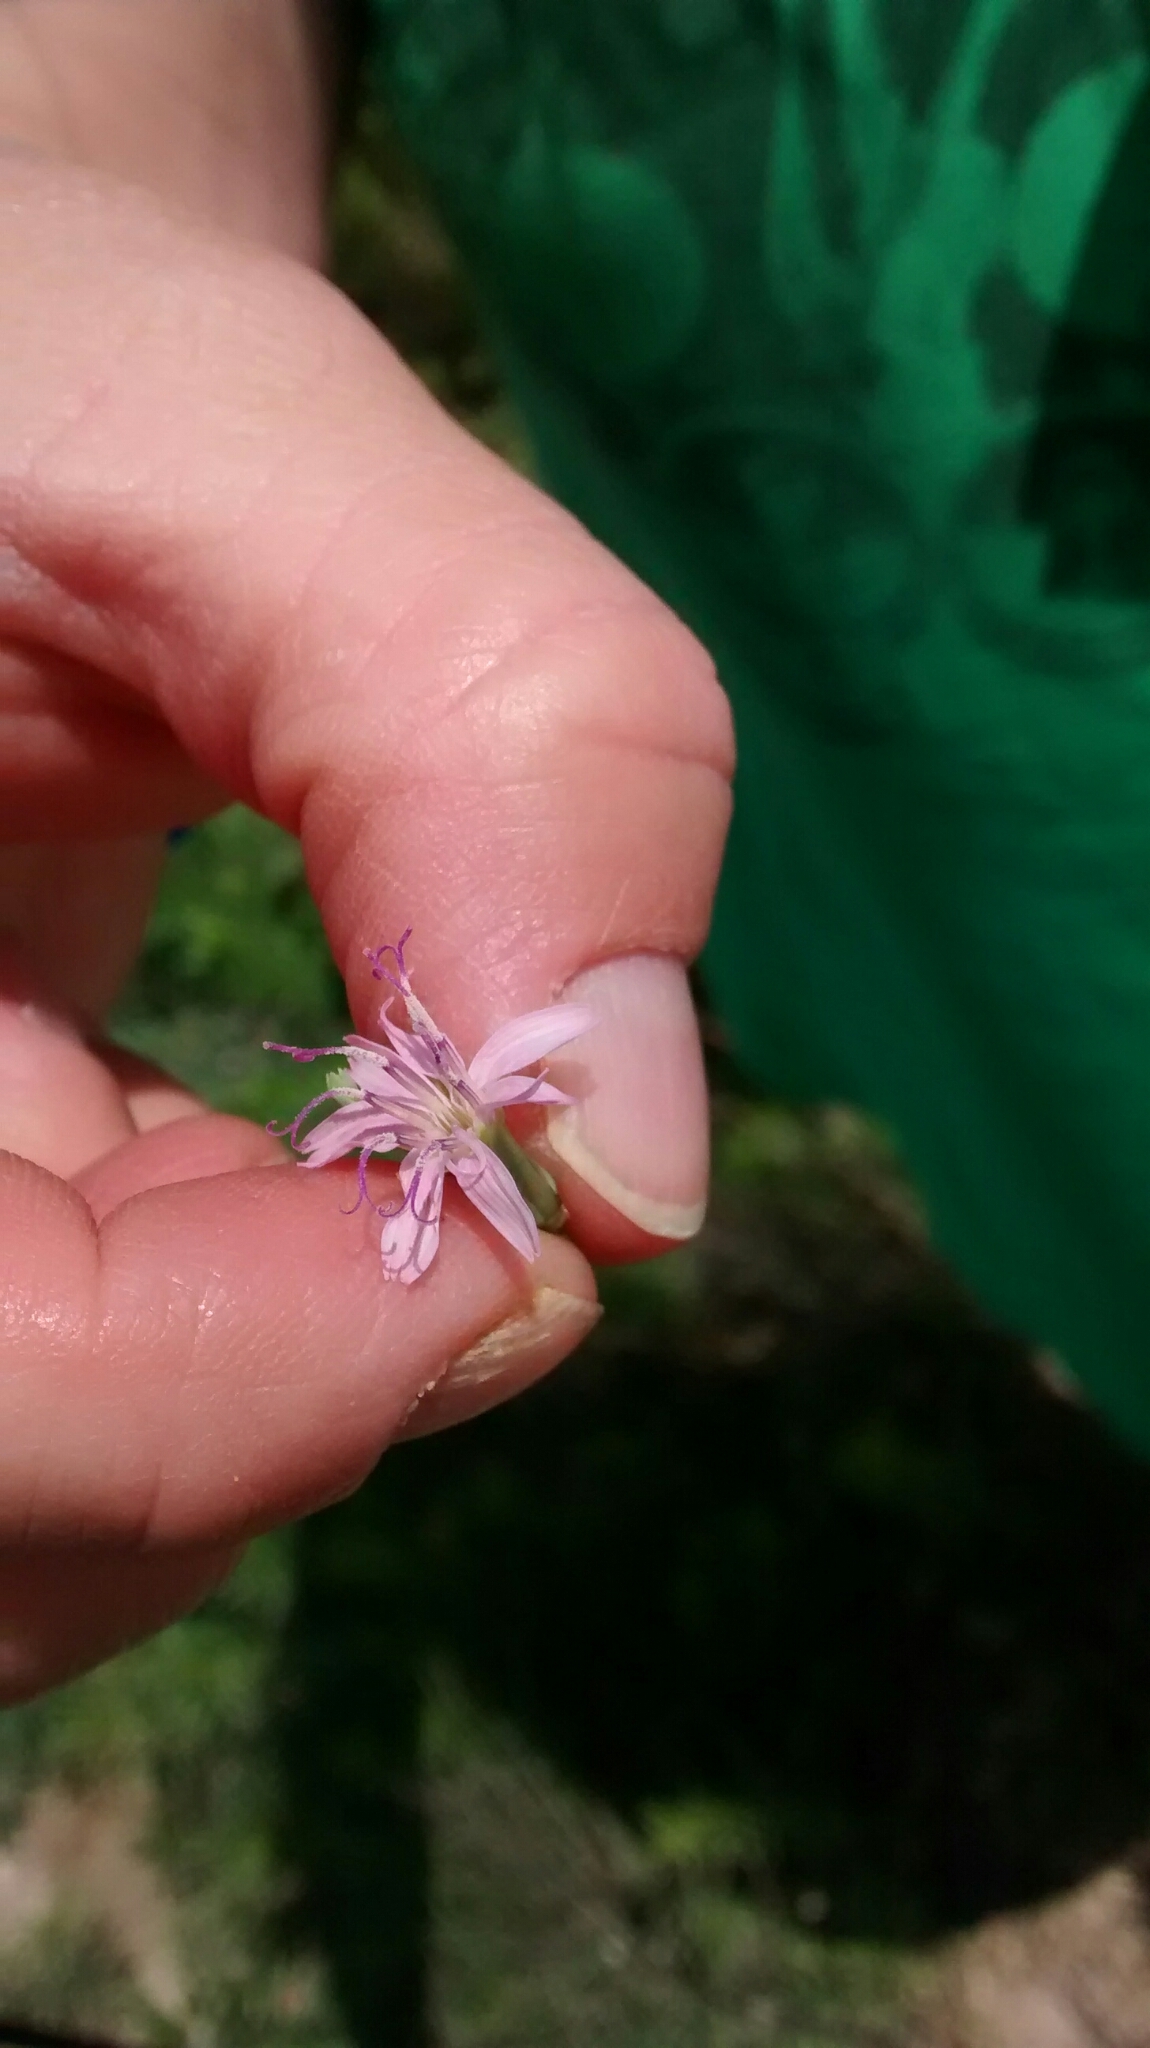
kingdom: Plantae
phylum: Tracheophyta
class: Magnoliopsida
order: Asterales
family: Asteraceae
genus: Stephanomeria
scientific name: Stephanomeria pauciflora
